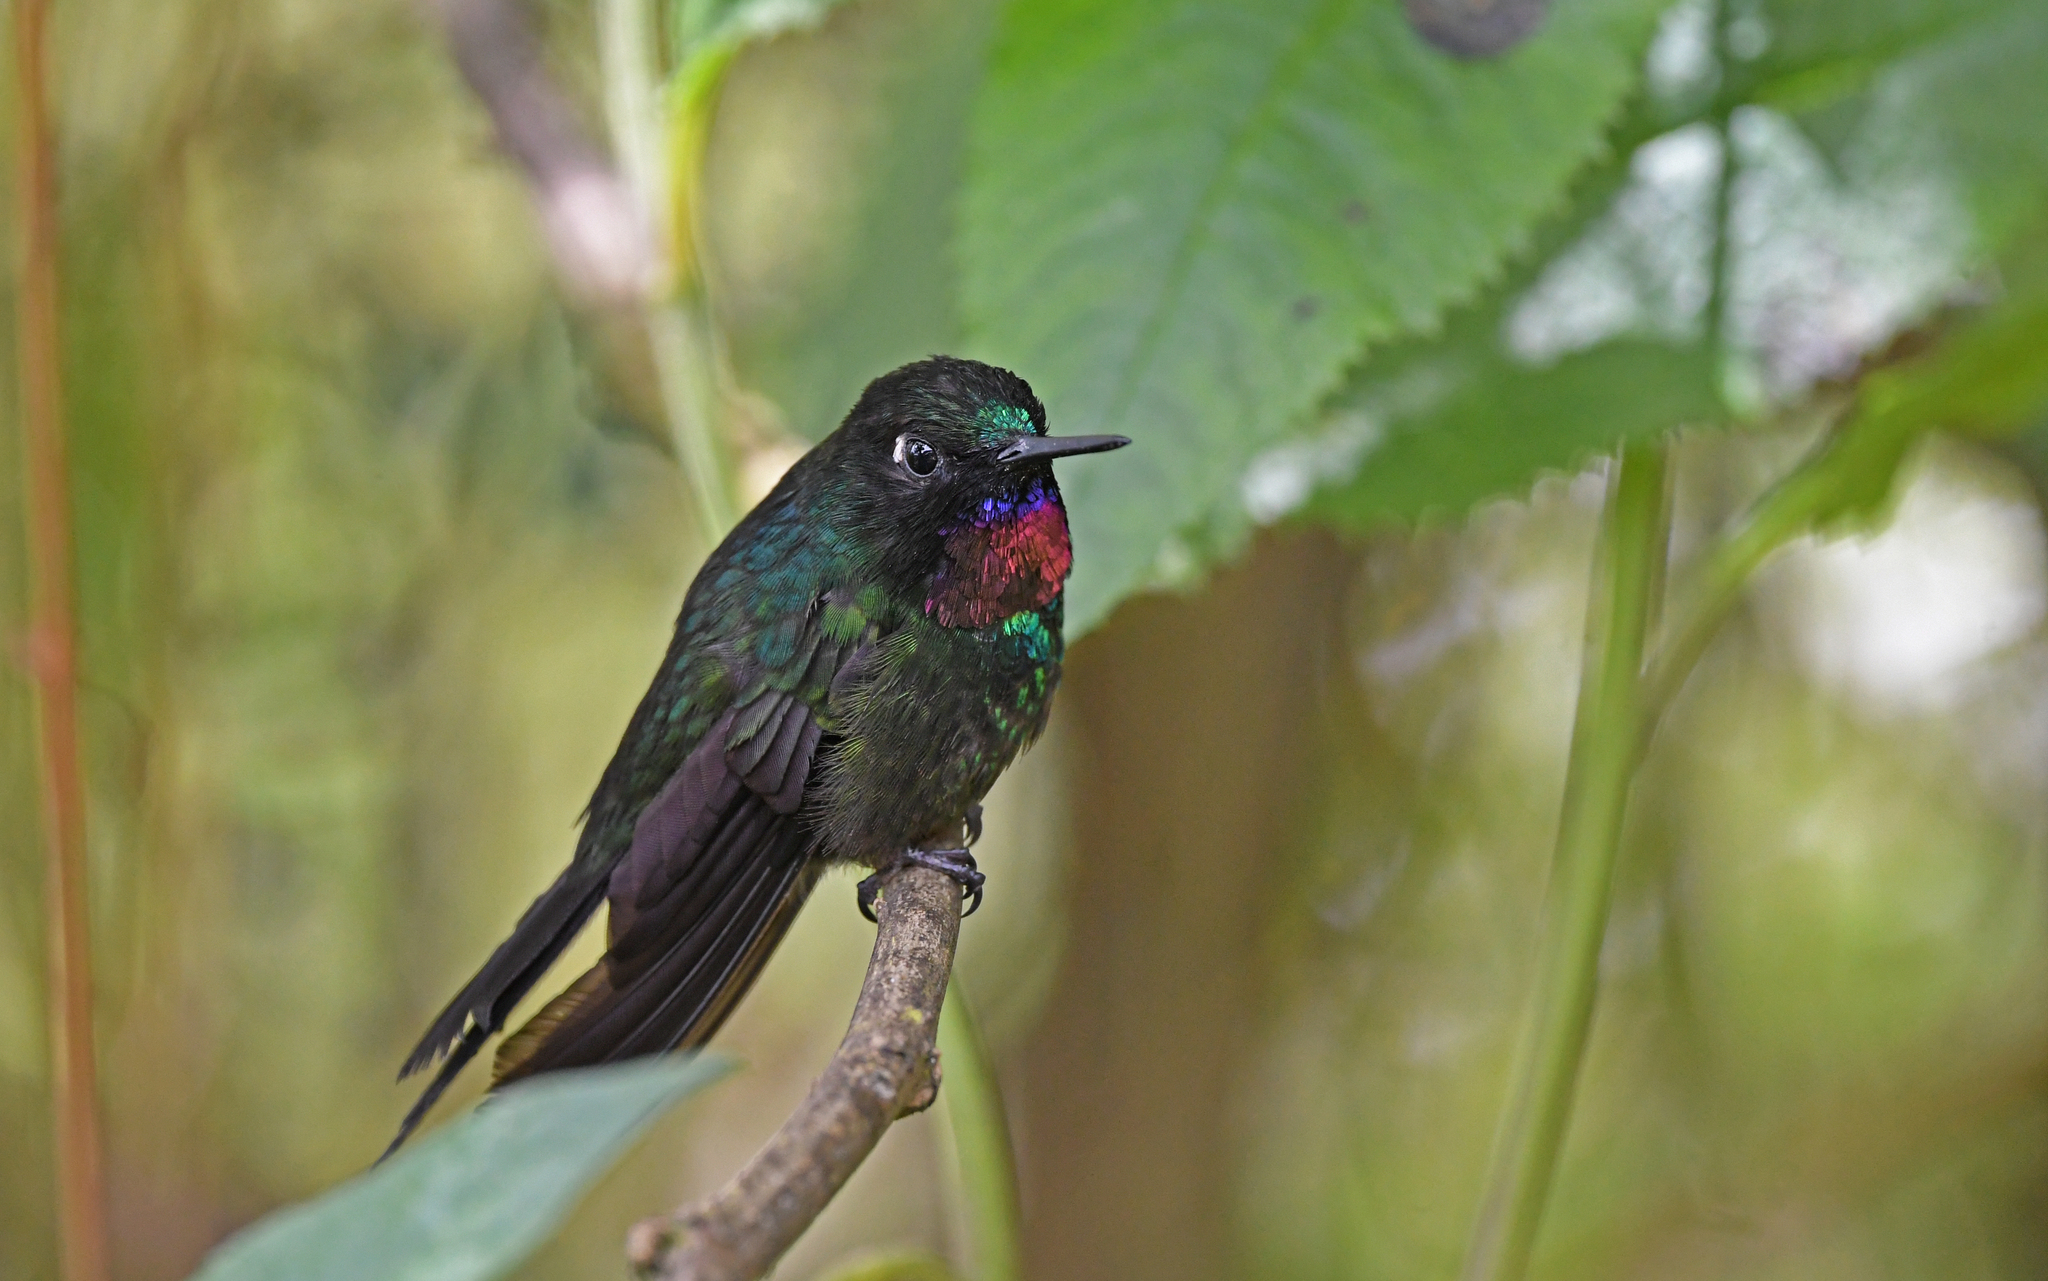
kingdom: Animalia
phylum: Chordata
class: Aves
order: Apodiformes
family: Trochilidae
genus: Heliangelus
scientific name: Heliangelus exortis
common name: Tourmaline sunangel
